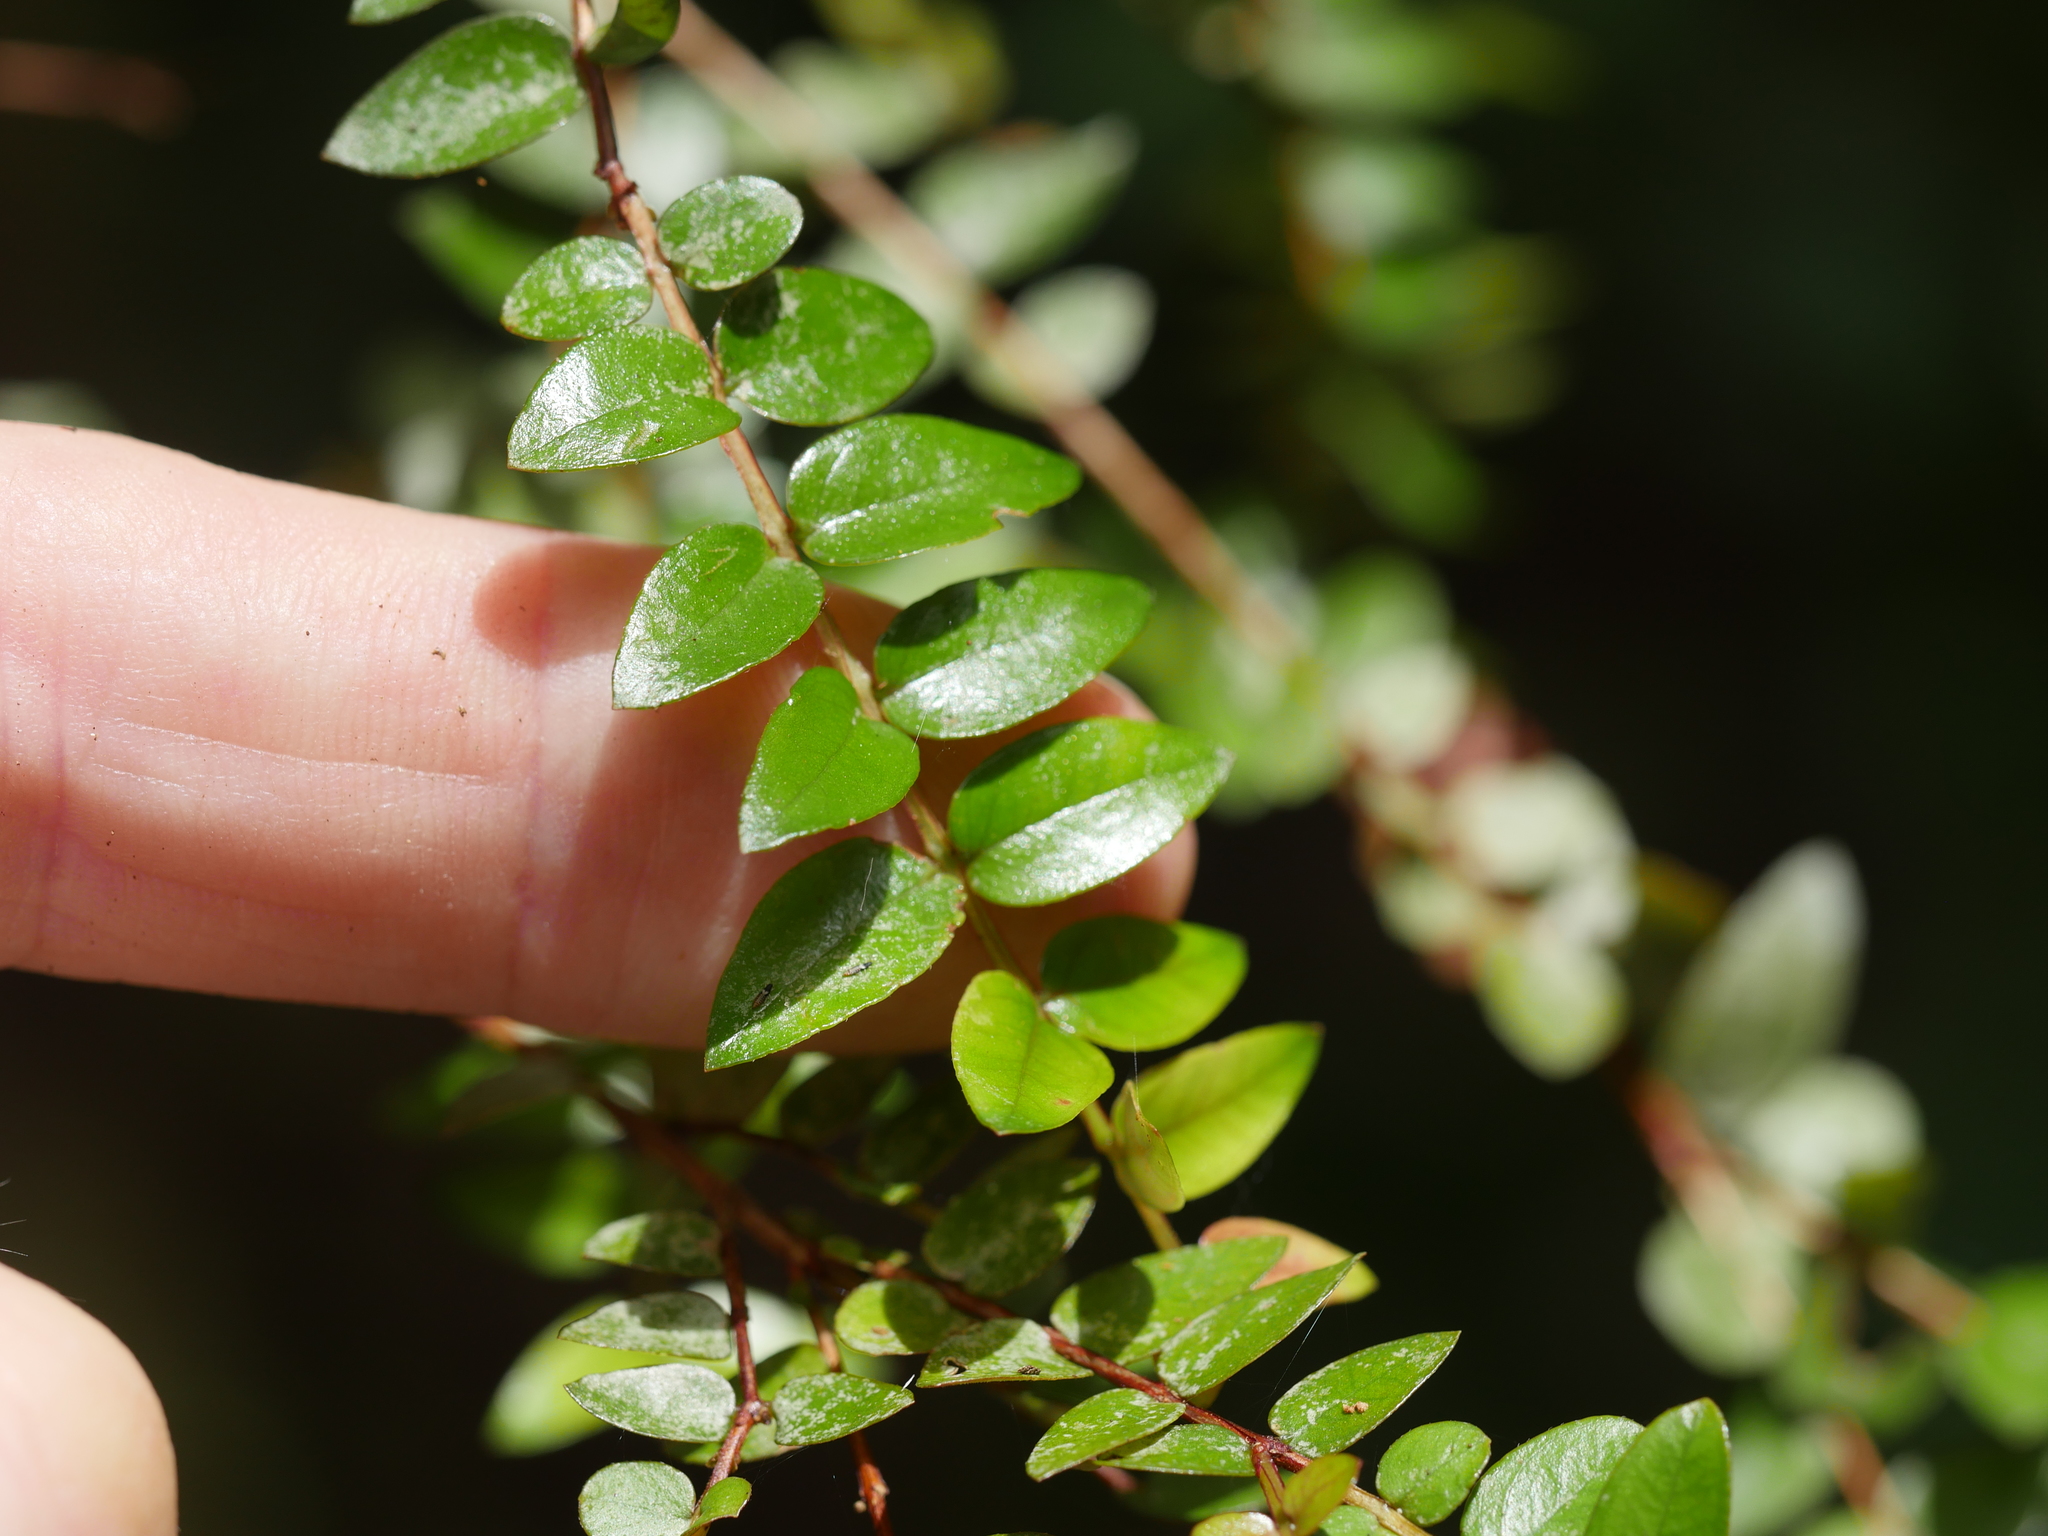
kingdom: Plantae
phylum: Tracheophyta
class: Magnoliopsida
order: Myrtales
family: Myrtaceae
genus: Metrosideros
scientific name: Metrosideros diffusa
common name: Small ratavine
